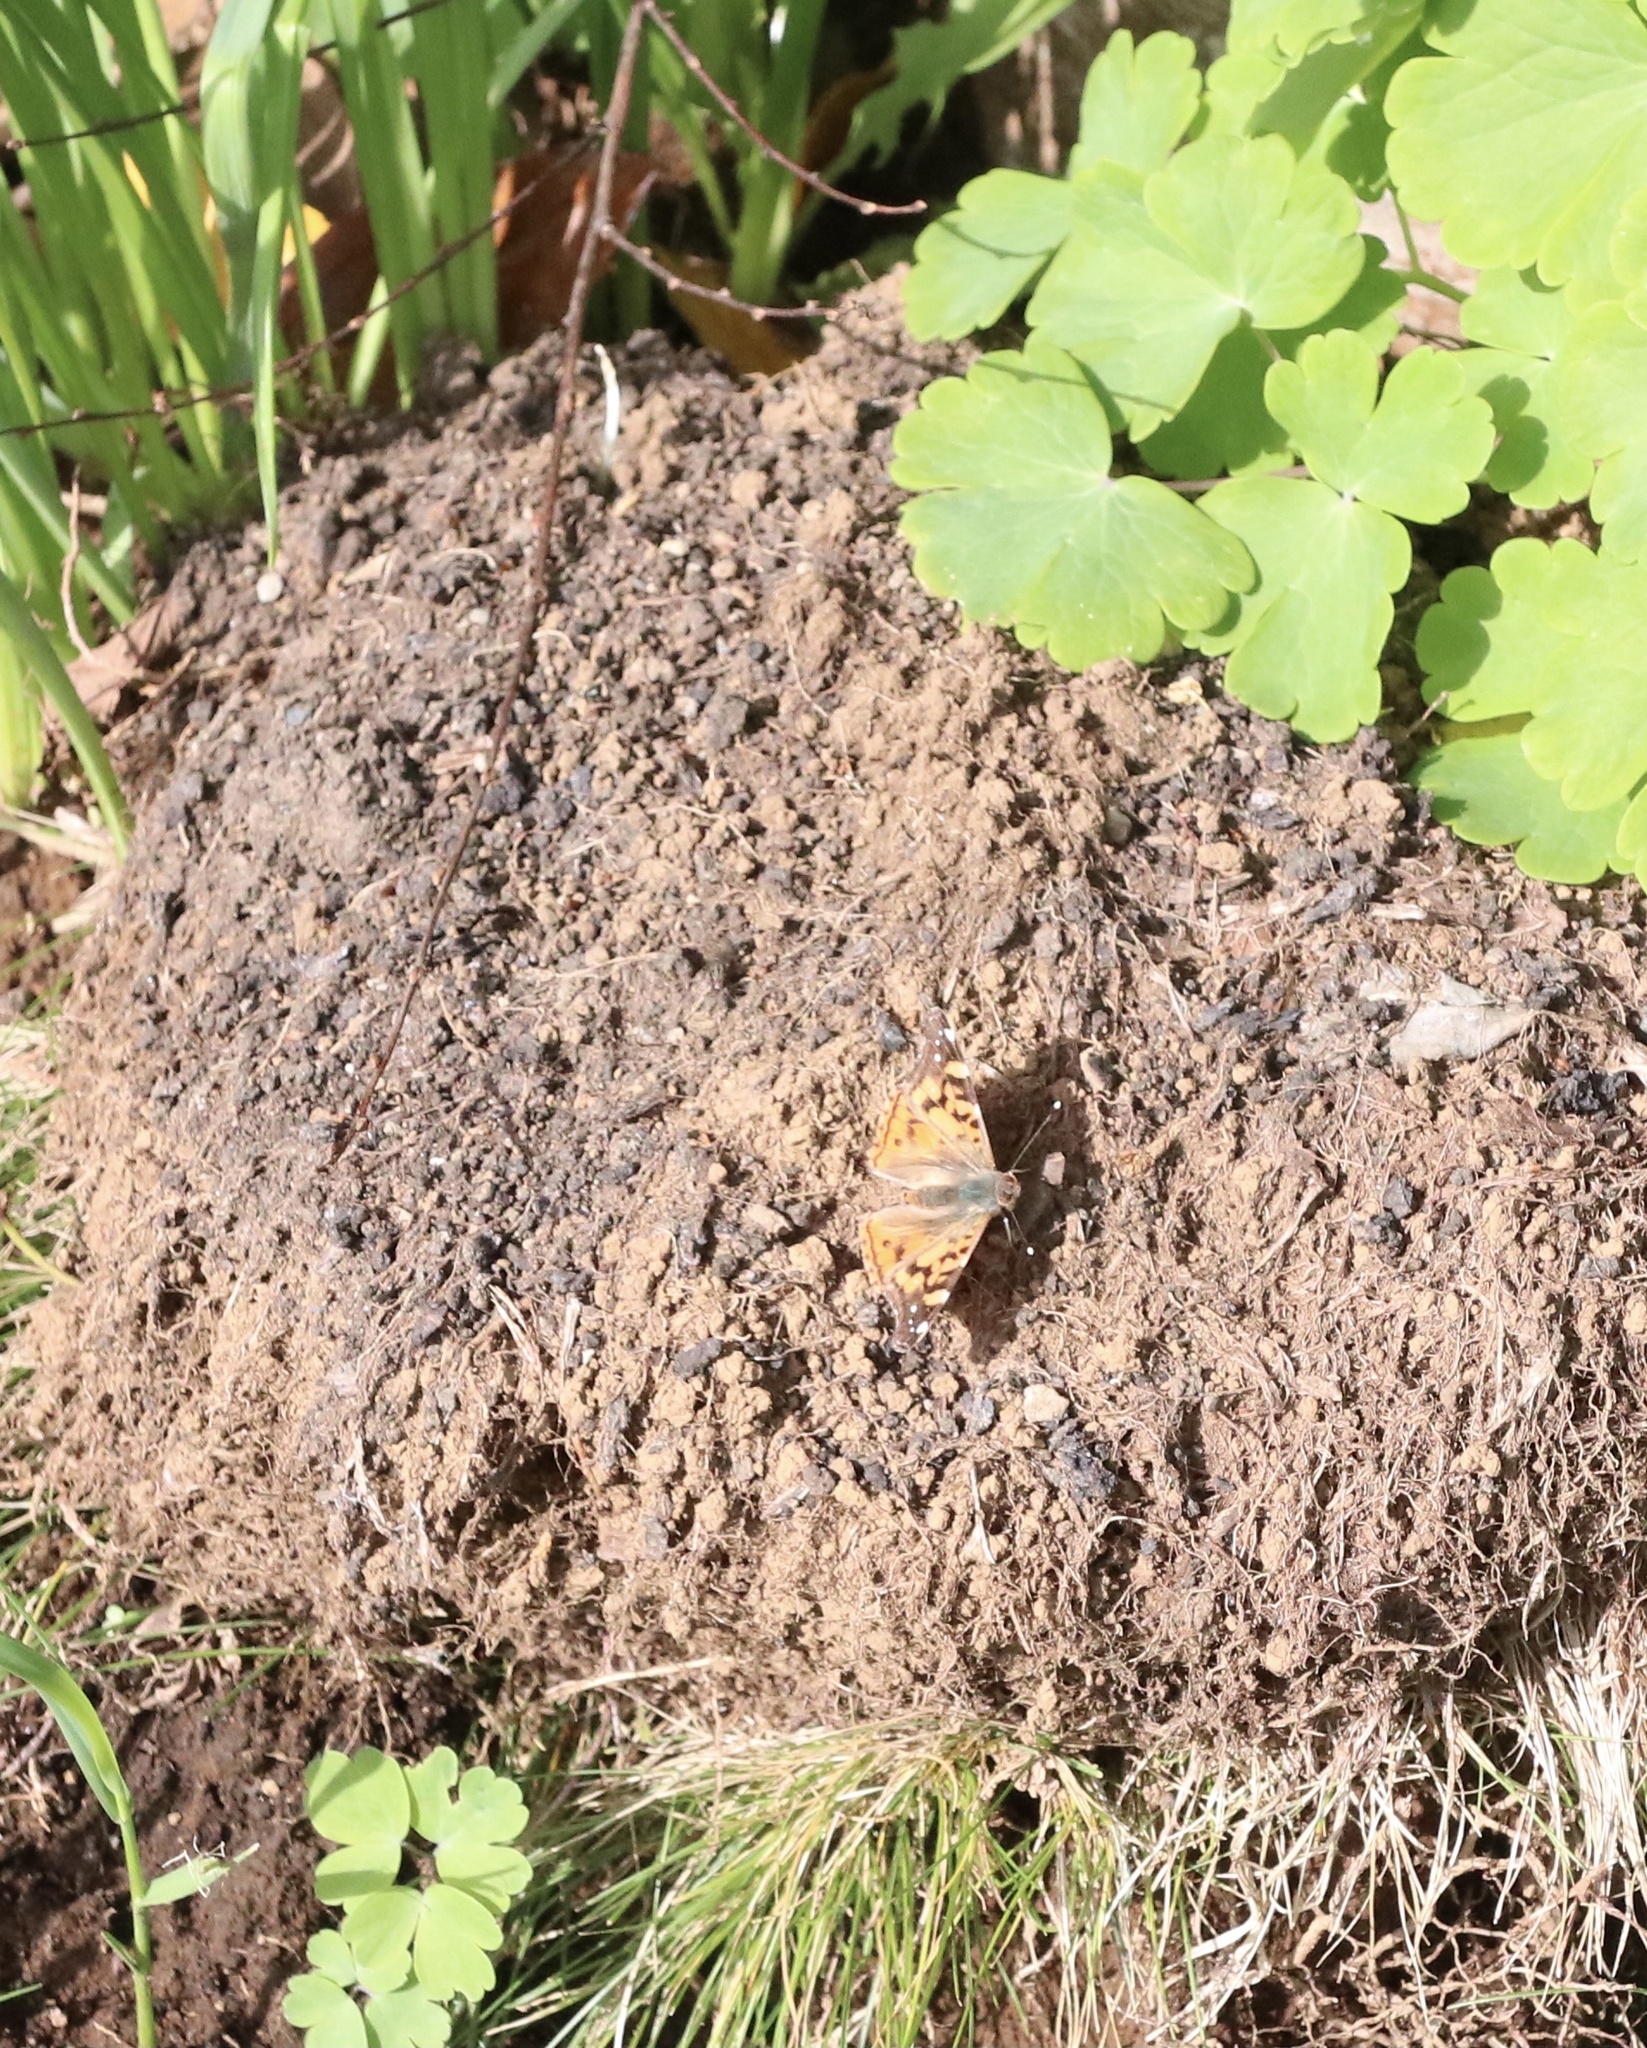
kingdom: Animalia
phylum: Arthropoda
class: Insecta
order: Lepidoptera
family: Nymphalidae
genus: Vanessa
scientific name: Vanessa terpsichore
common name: Chilean lady
